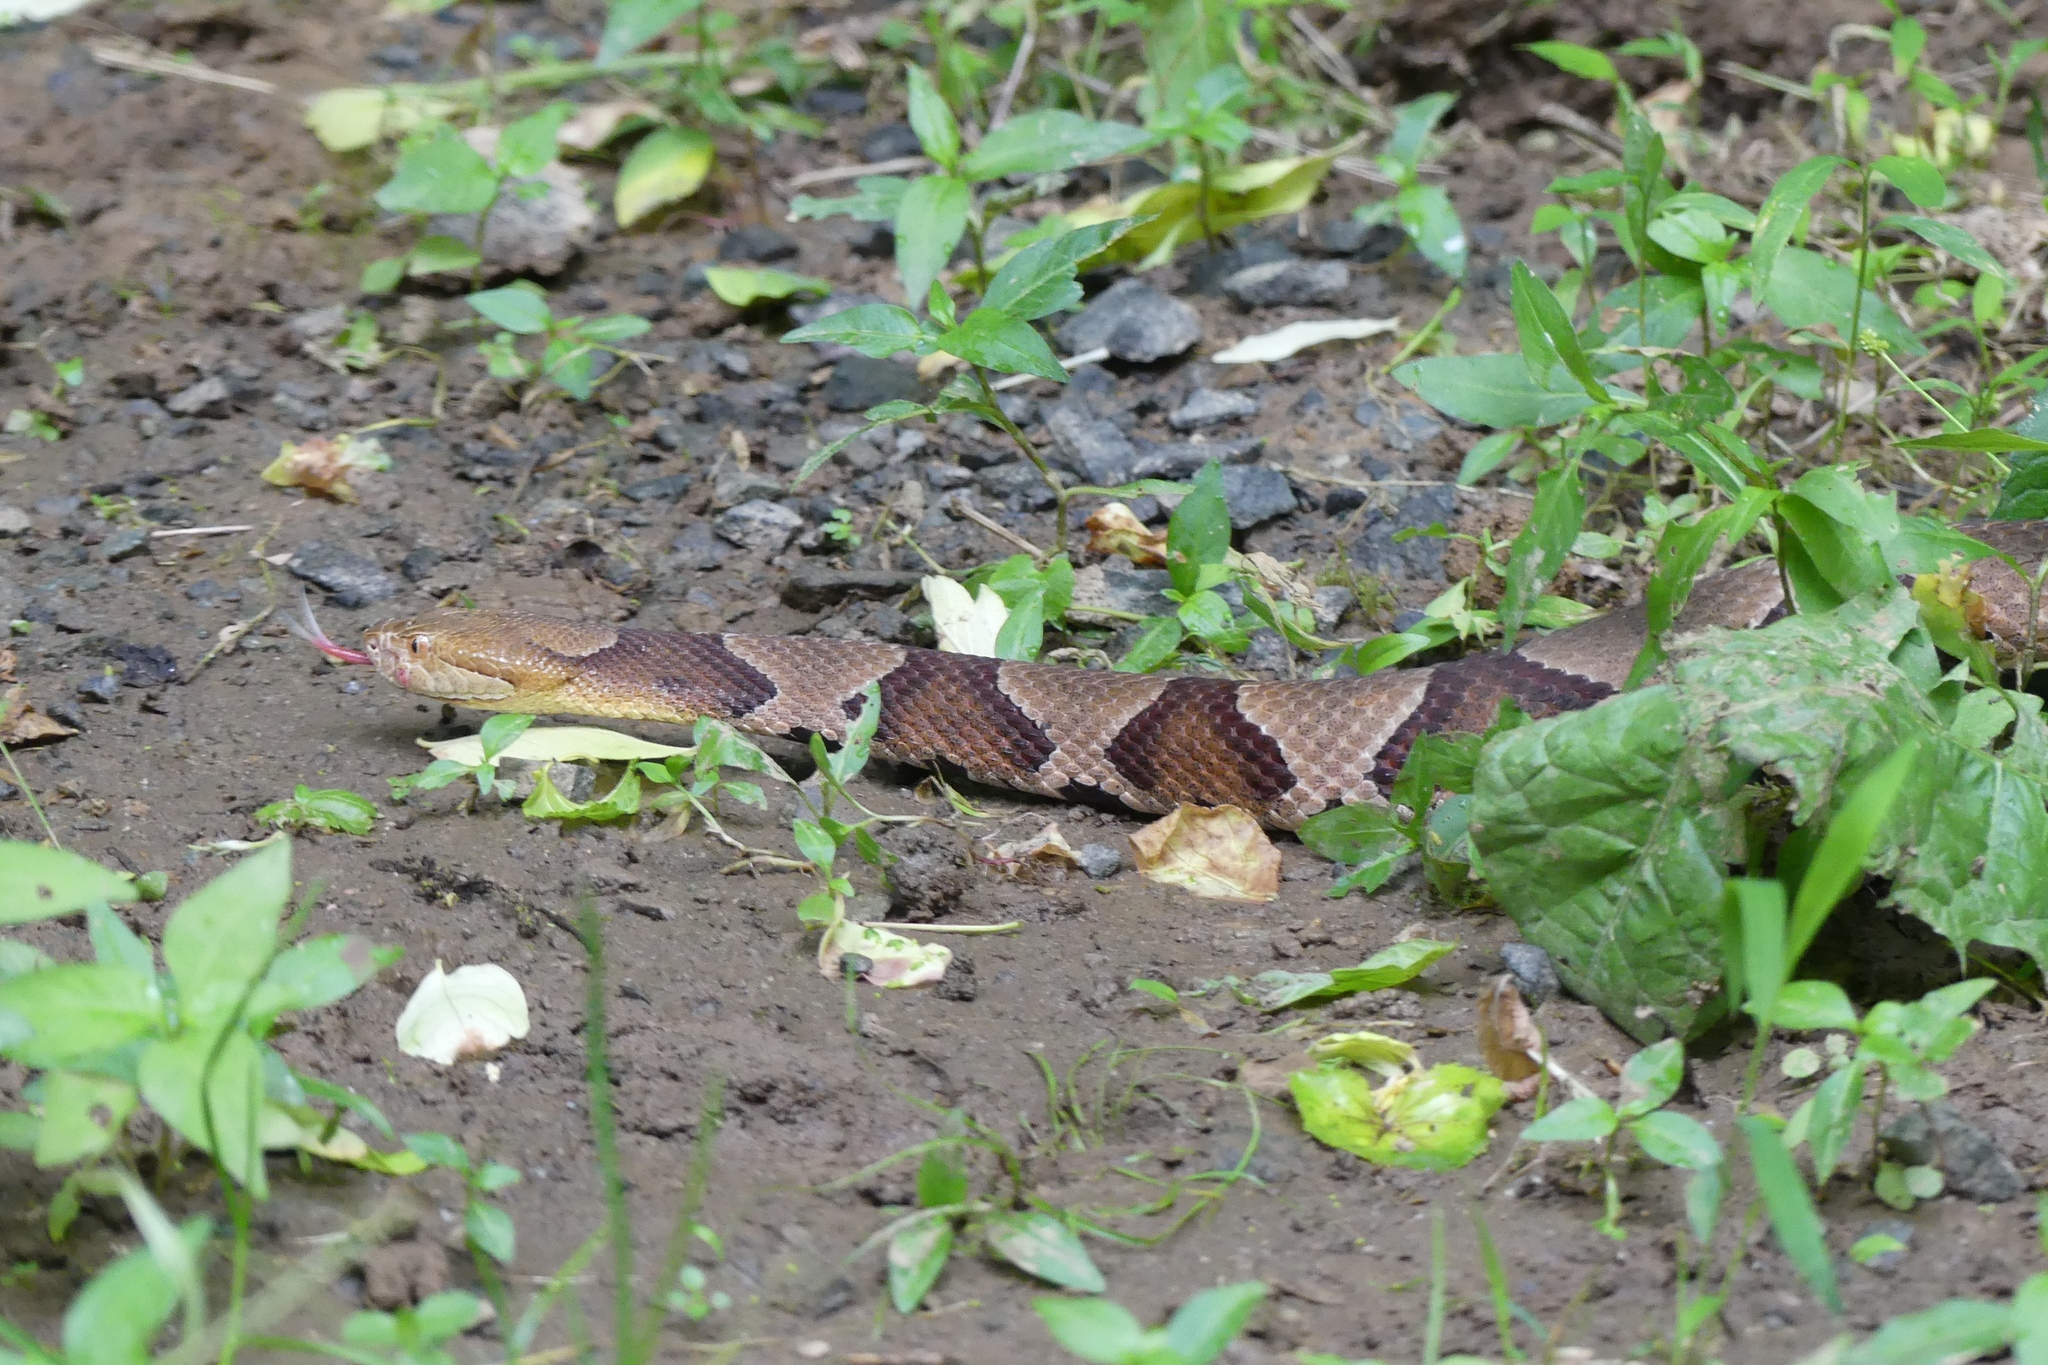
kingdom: Animalia
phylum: Chordata
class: Squamata
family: Viperidae
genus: Agkistrodon
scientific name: Agkistrodon contortrix
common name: Northern copperhead
